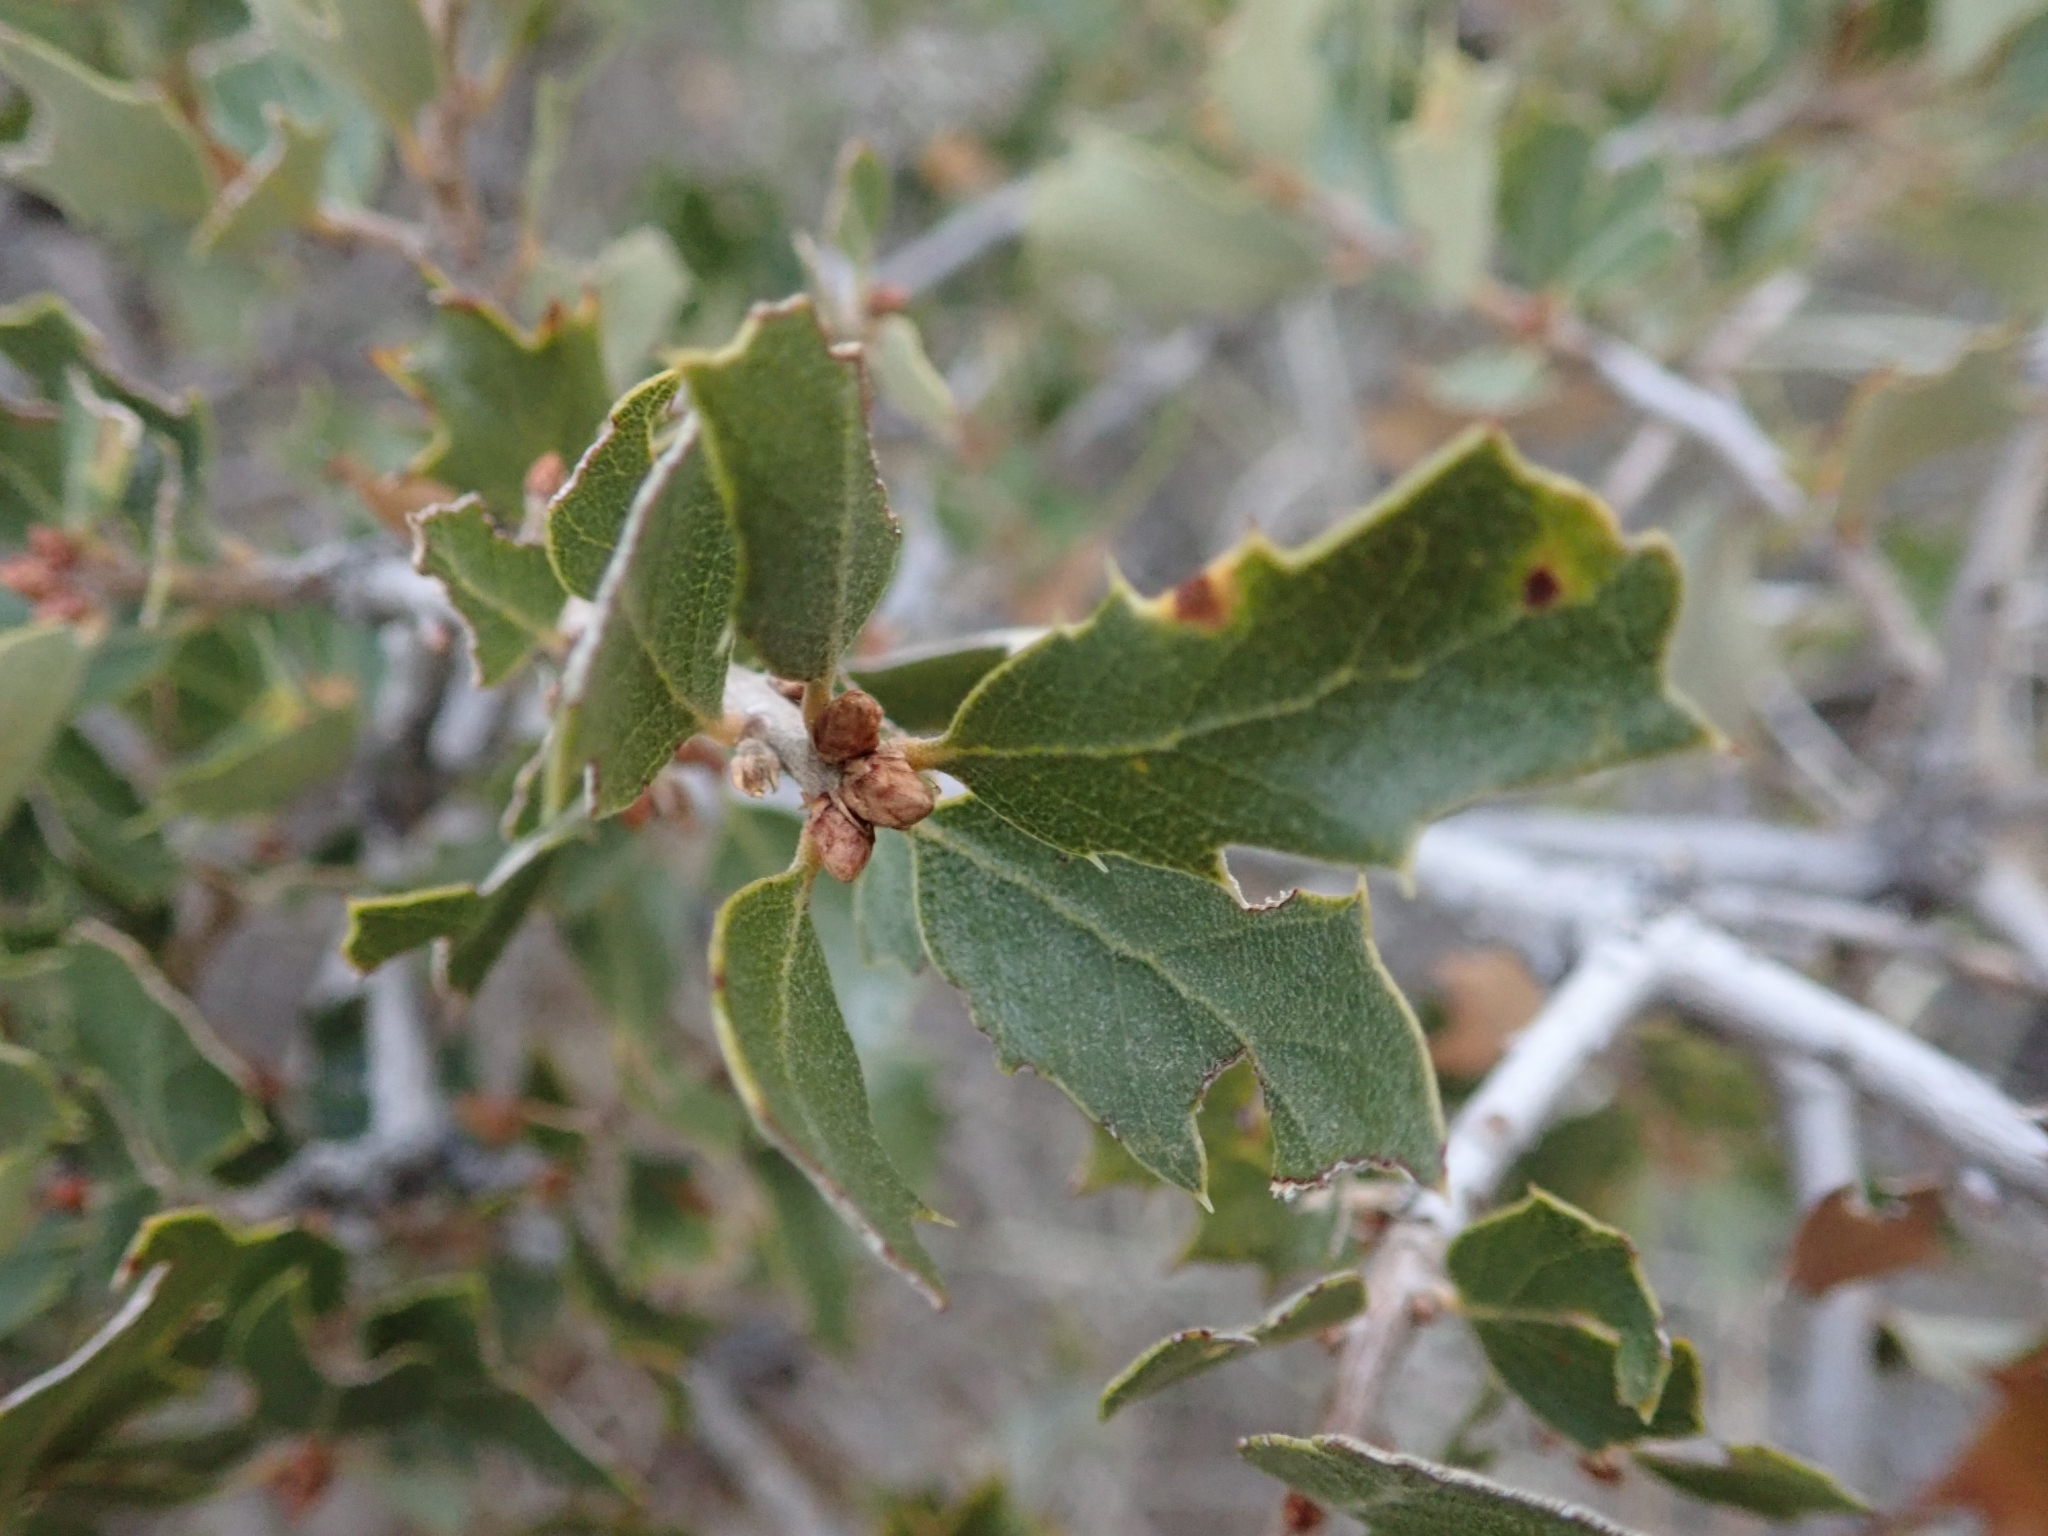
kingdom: Plantae
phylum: Tracheophyta
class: Magnoliopsida
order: Fagales
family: Fagaceae
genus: Quercus
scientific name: Quercus cornelius-mulleri
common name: Muller oak
